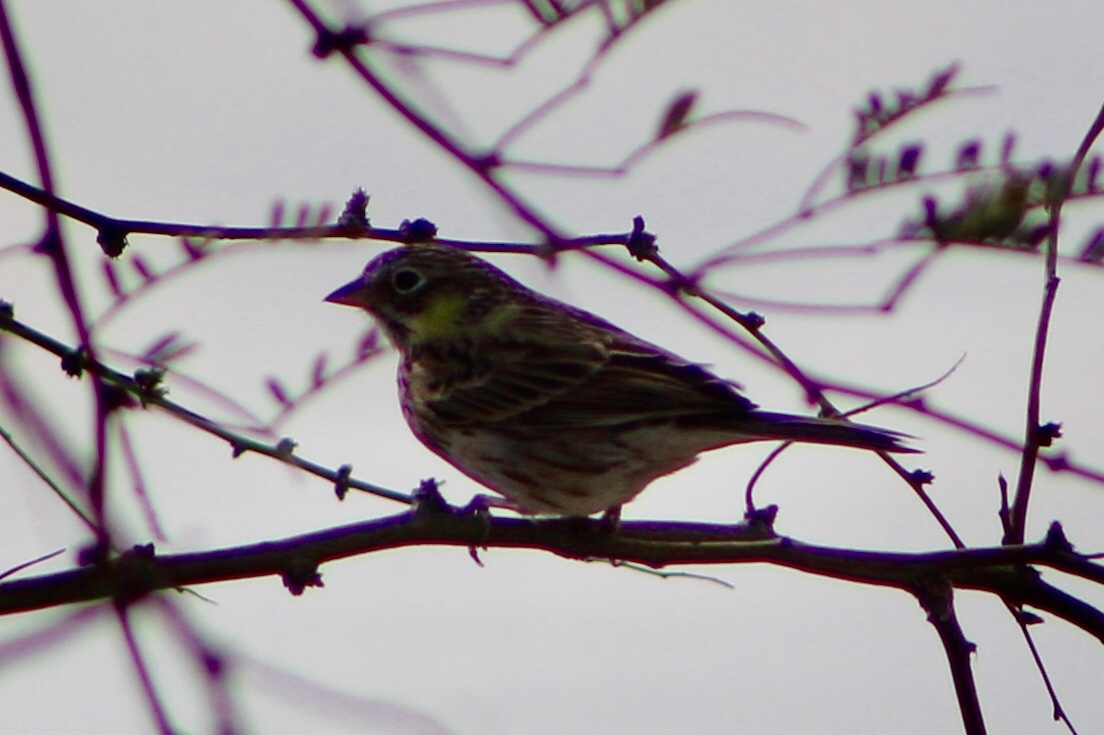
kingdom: Animalia
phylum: Chordata
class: Aves
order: Passeriformes
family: Passerellidae
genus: Pooecetes
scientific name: Pooecetes gramineus
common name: Vesper sparrow
